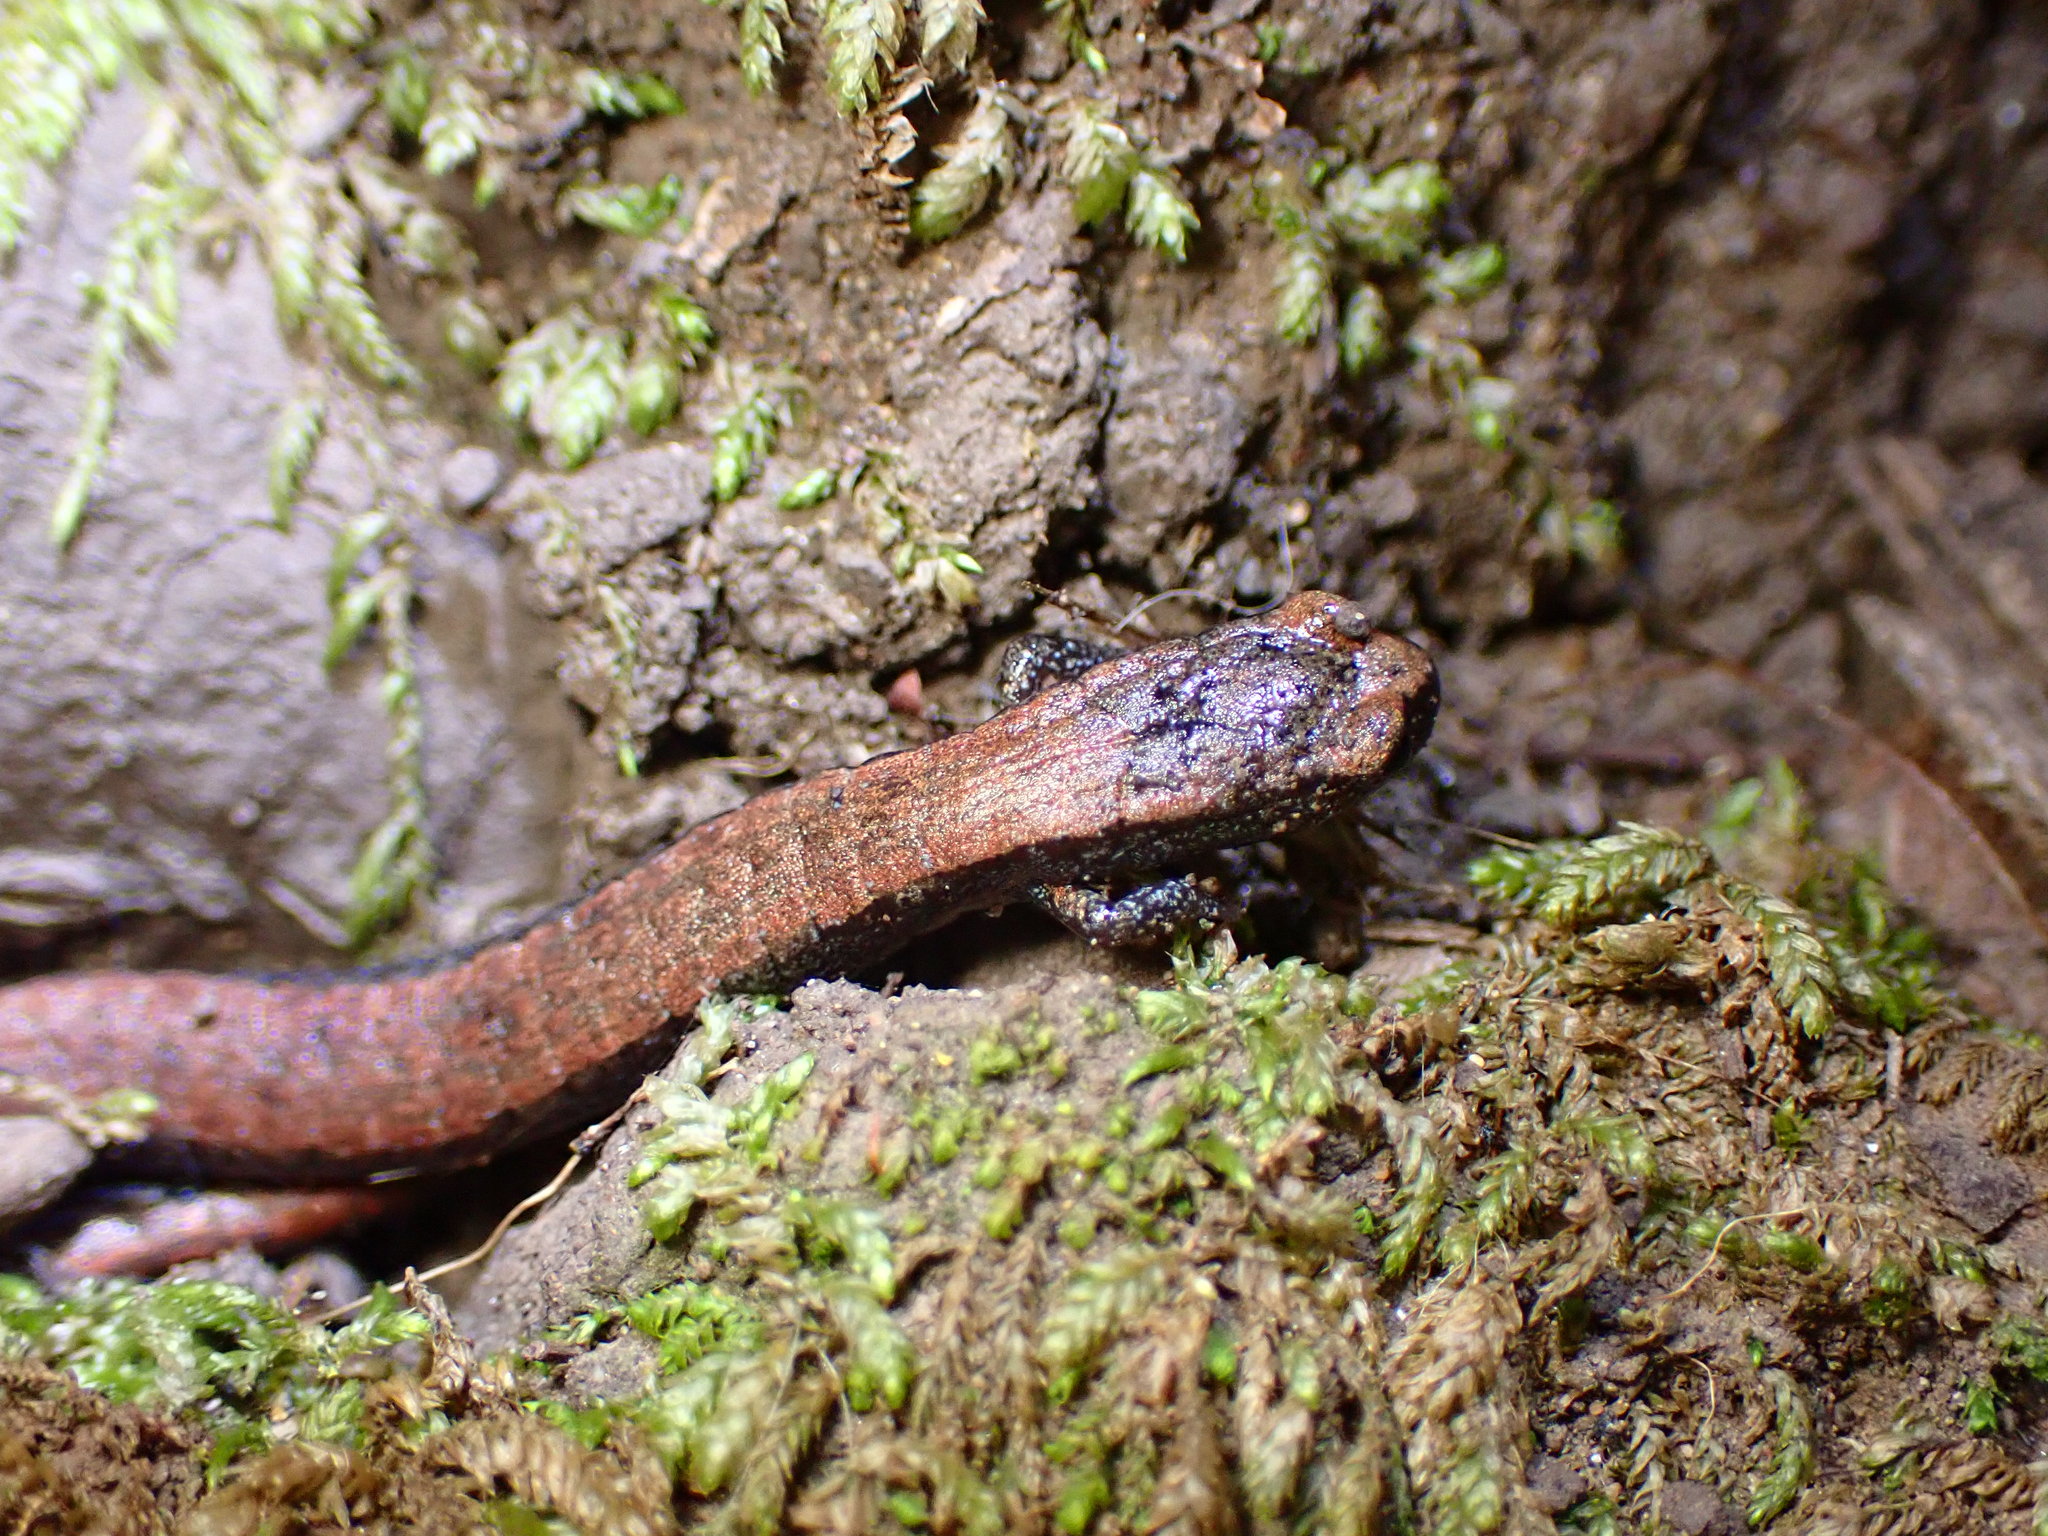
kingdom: Animalia
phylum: Chordata
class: Amphibia
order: Caudata
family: Plethodontidae
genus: Batrachoseps
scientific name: Batrachoseps attenuatus
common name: California slender salamander
